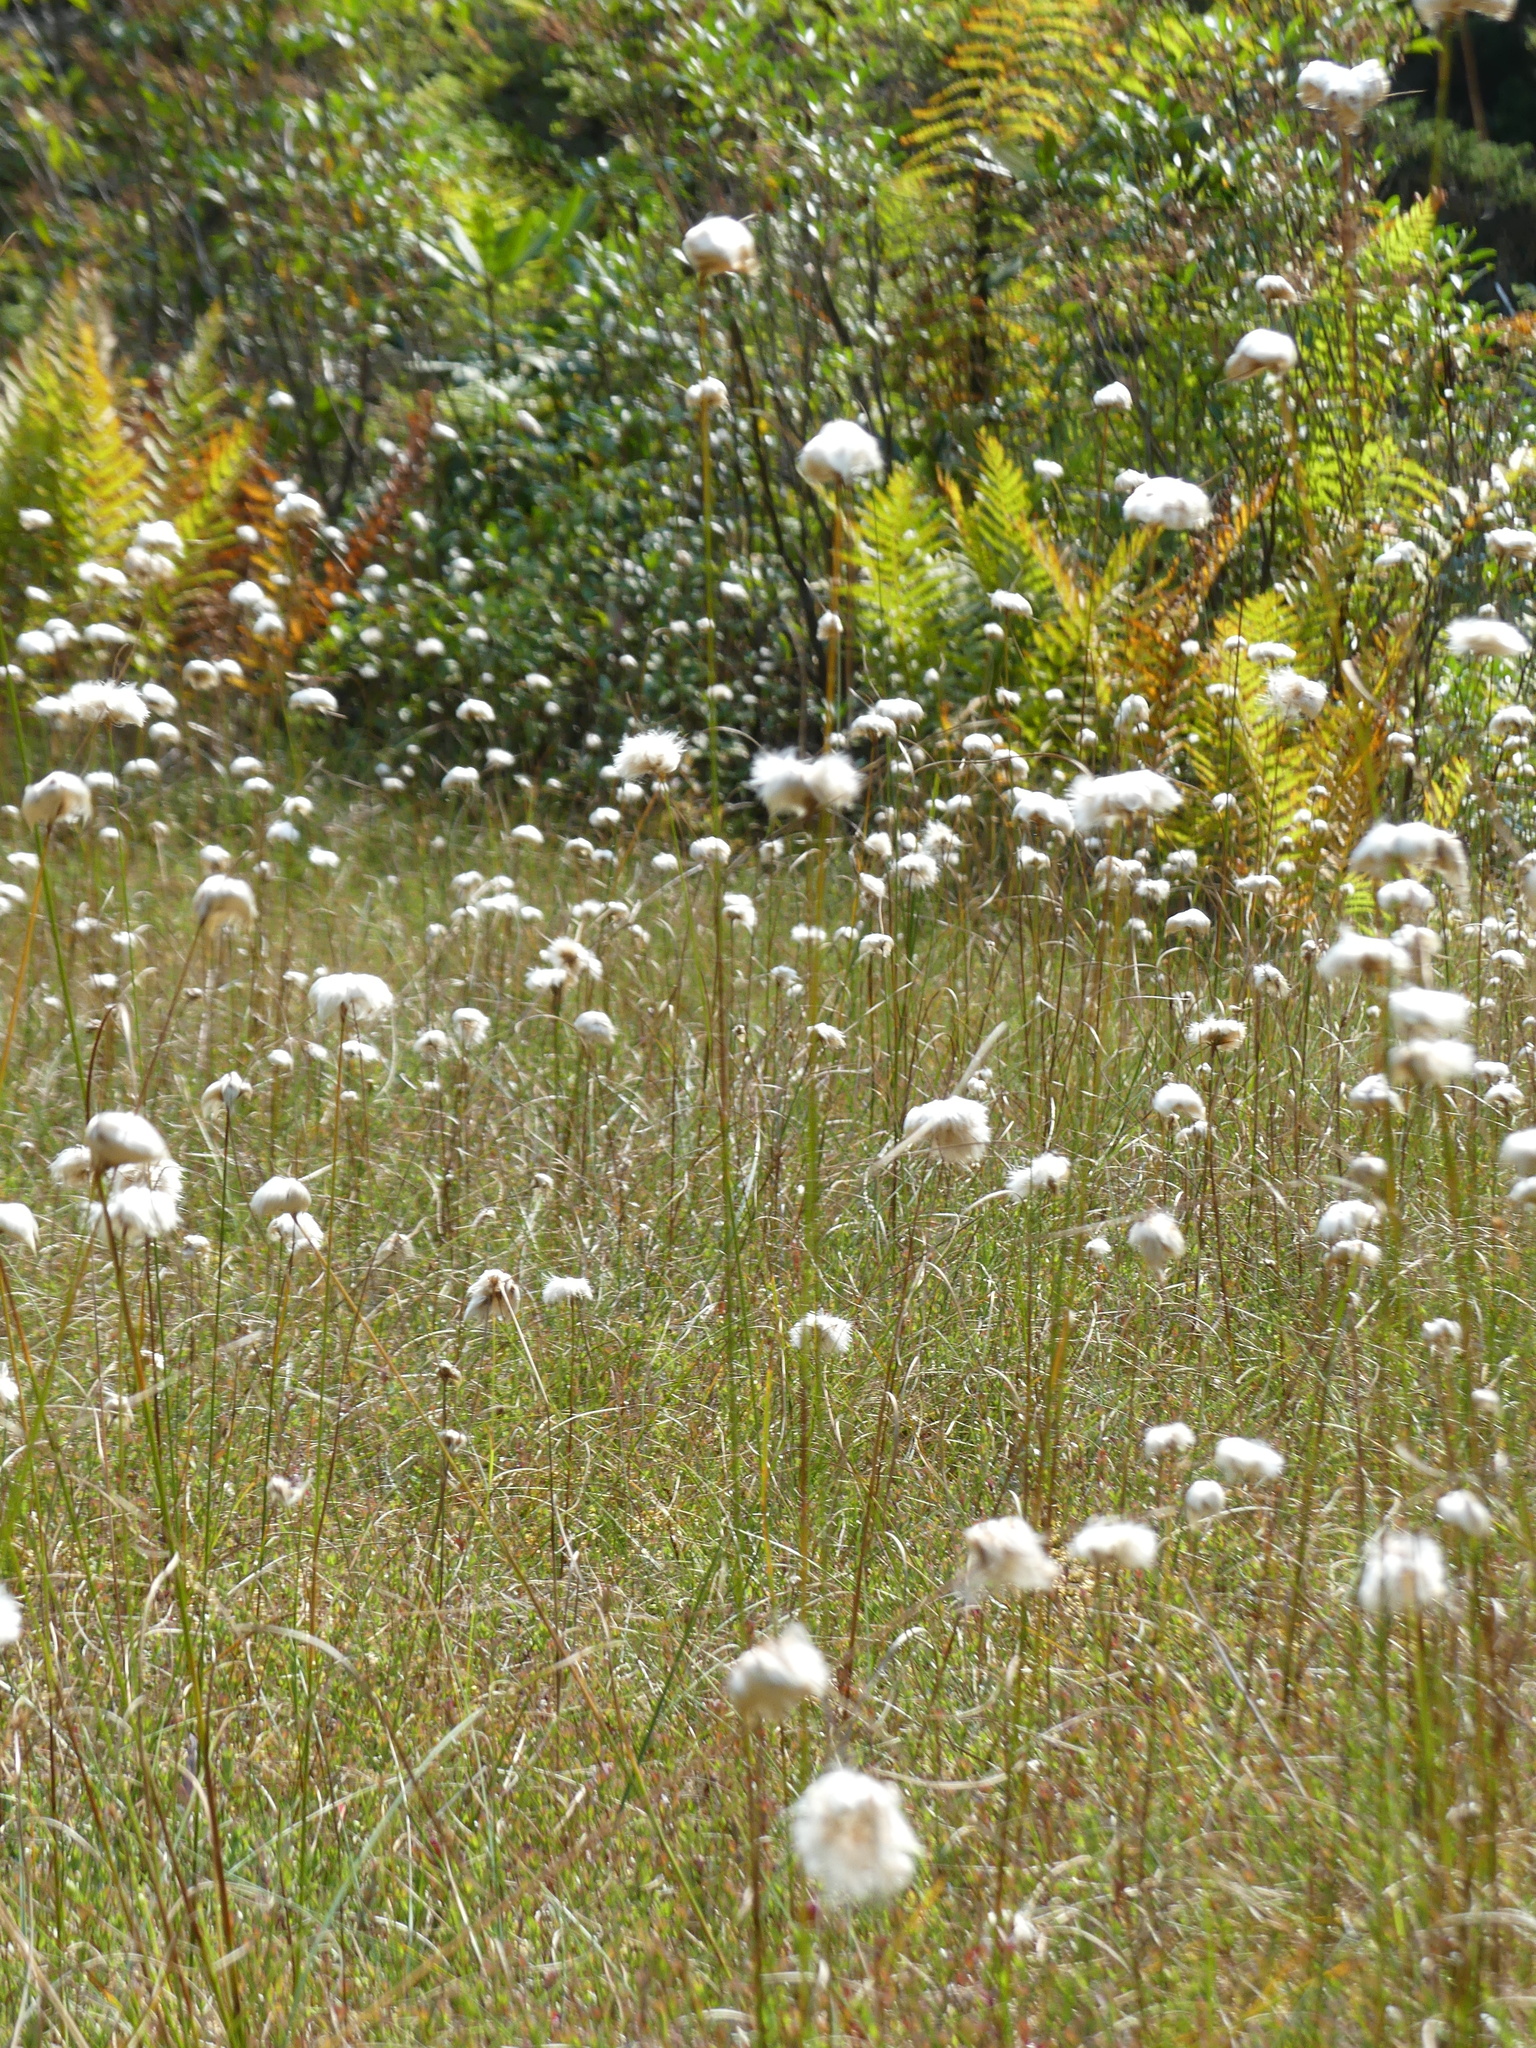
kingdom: Plantae
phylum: Tracheophyta
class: Liliopsida
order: Poales
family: Cyperaceae
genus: Eriophorum
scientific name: Eriophorum virginicum
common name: Tawny cottongrass
